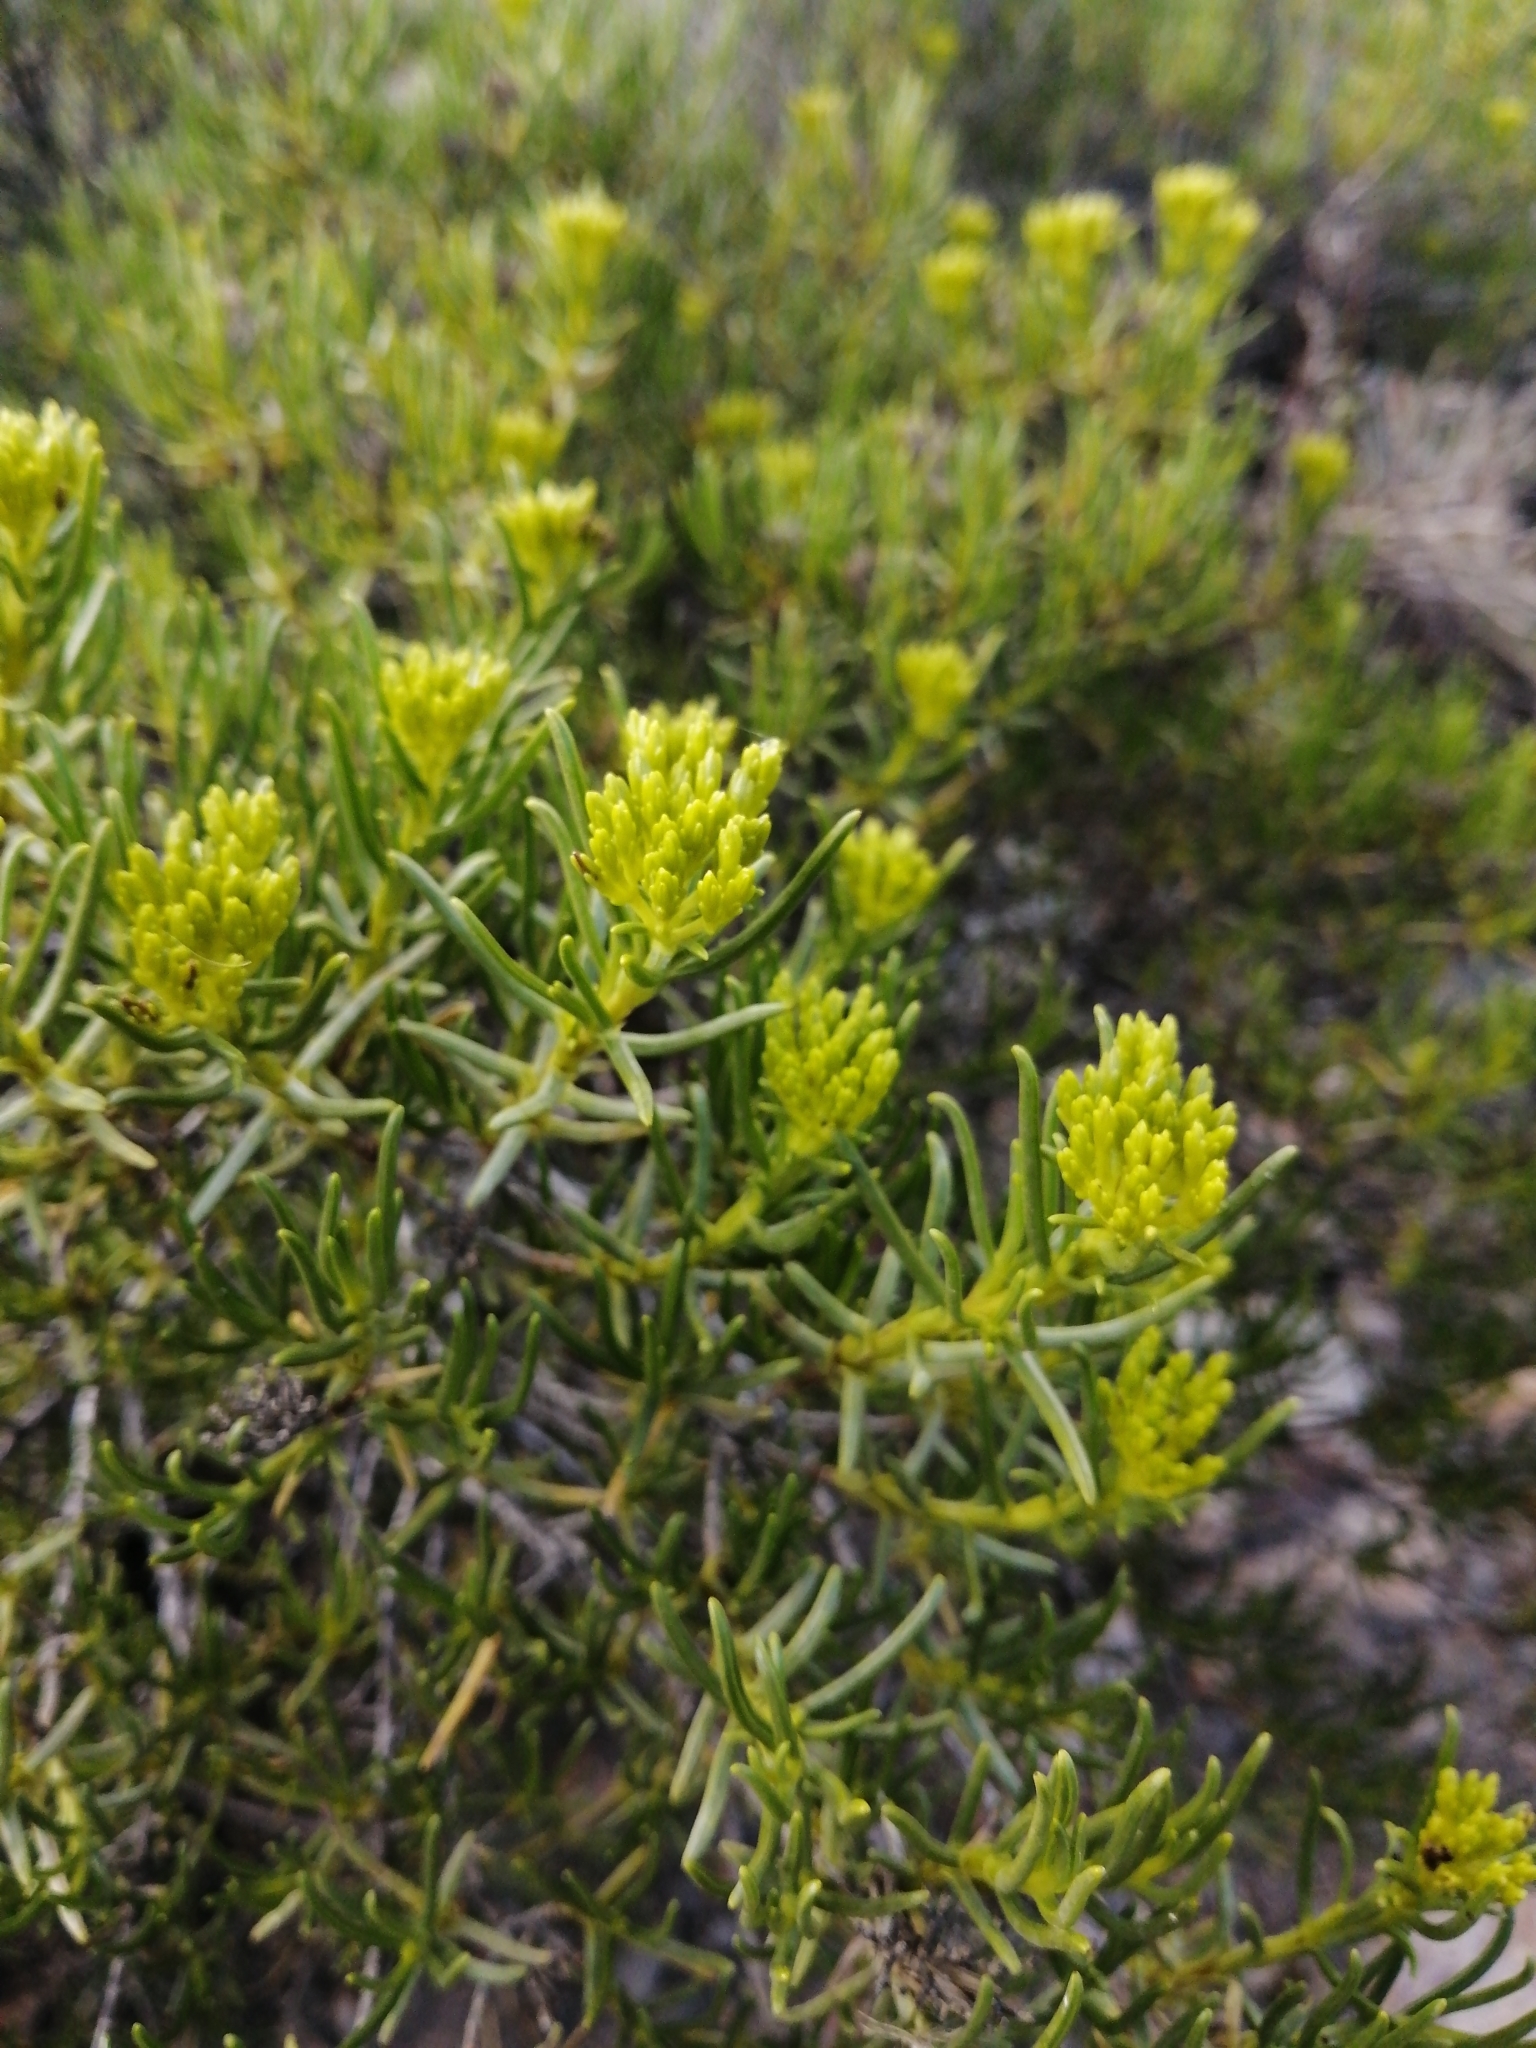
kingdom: Plantae
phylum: Tracheophyta
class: Magnoliopsida
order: Asterales
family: Asteraceae
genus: Pteronia
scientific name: Pteronia paniculata
